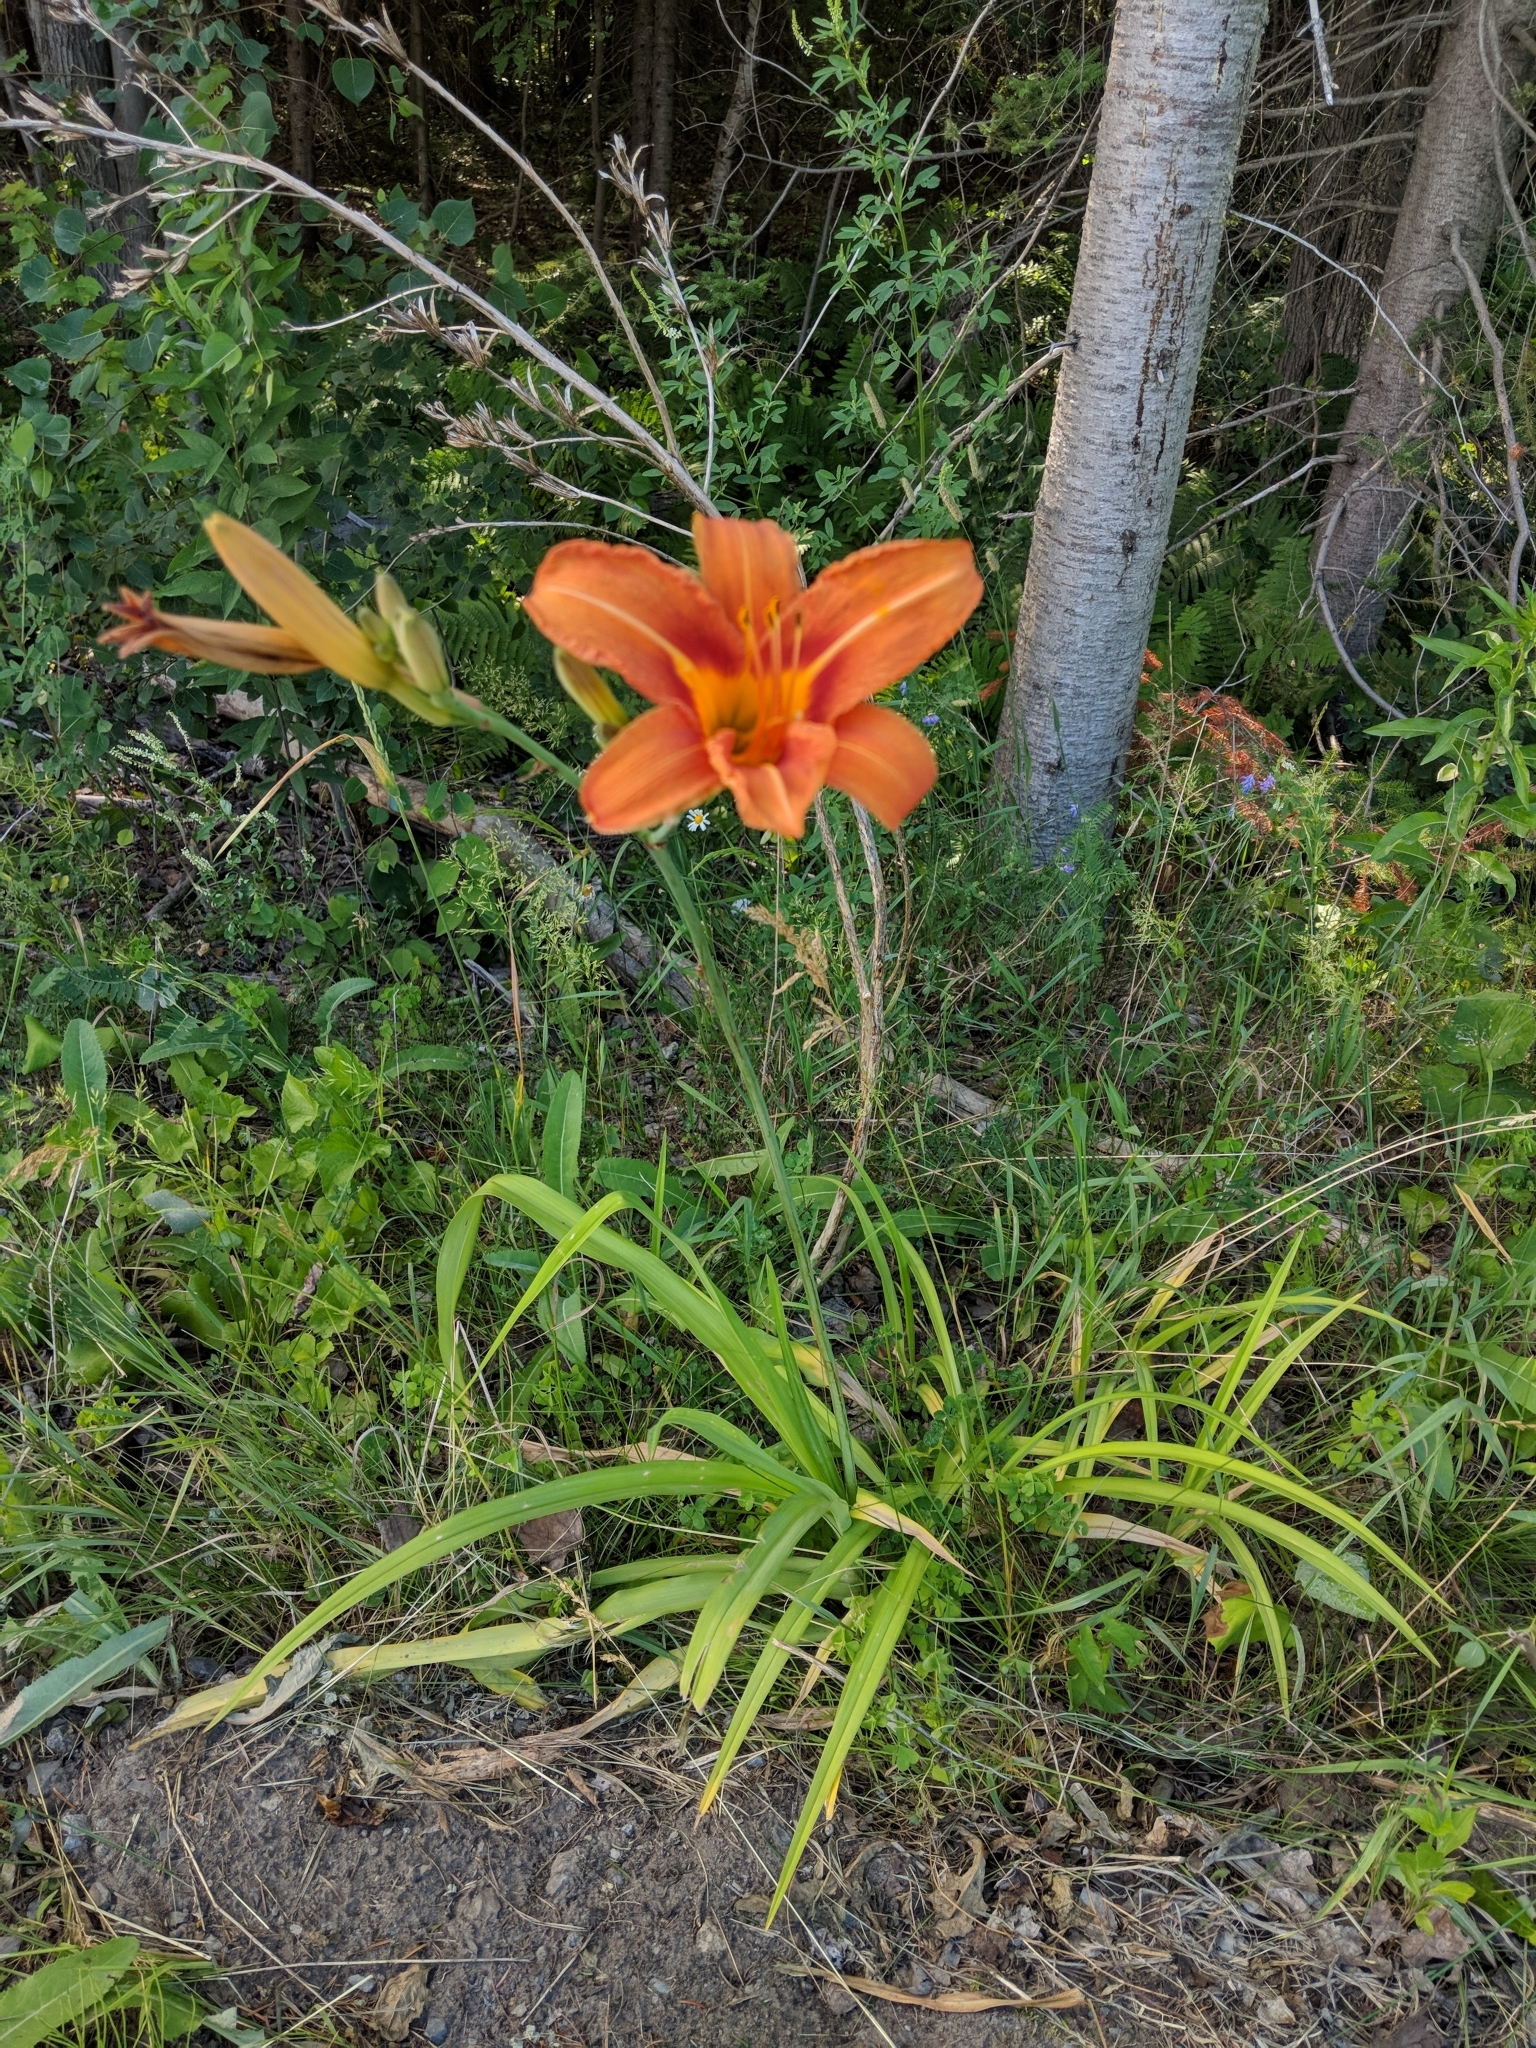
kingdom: Plantae
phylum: Tracheophyta
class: Liliopsida
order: Asparagales
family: Asphodelaceae
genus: Hemerocallis
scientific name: Hemerocallis fulva
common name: Orange day-lily
